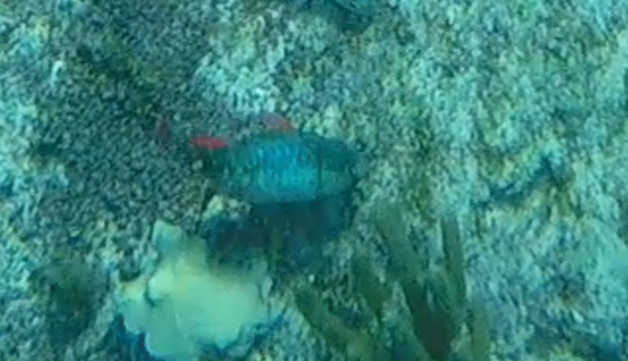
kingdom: Animalia
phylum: Chordata
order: Perciformes
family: Scaridae
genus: Sparisoma
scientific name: Sparisoma aurofrenatum
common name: Redband parrotfish
